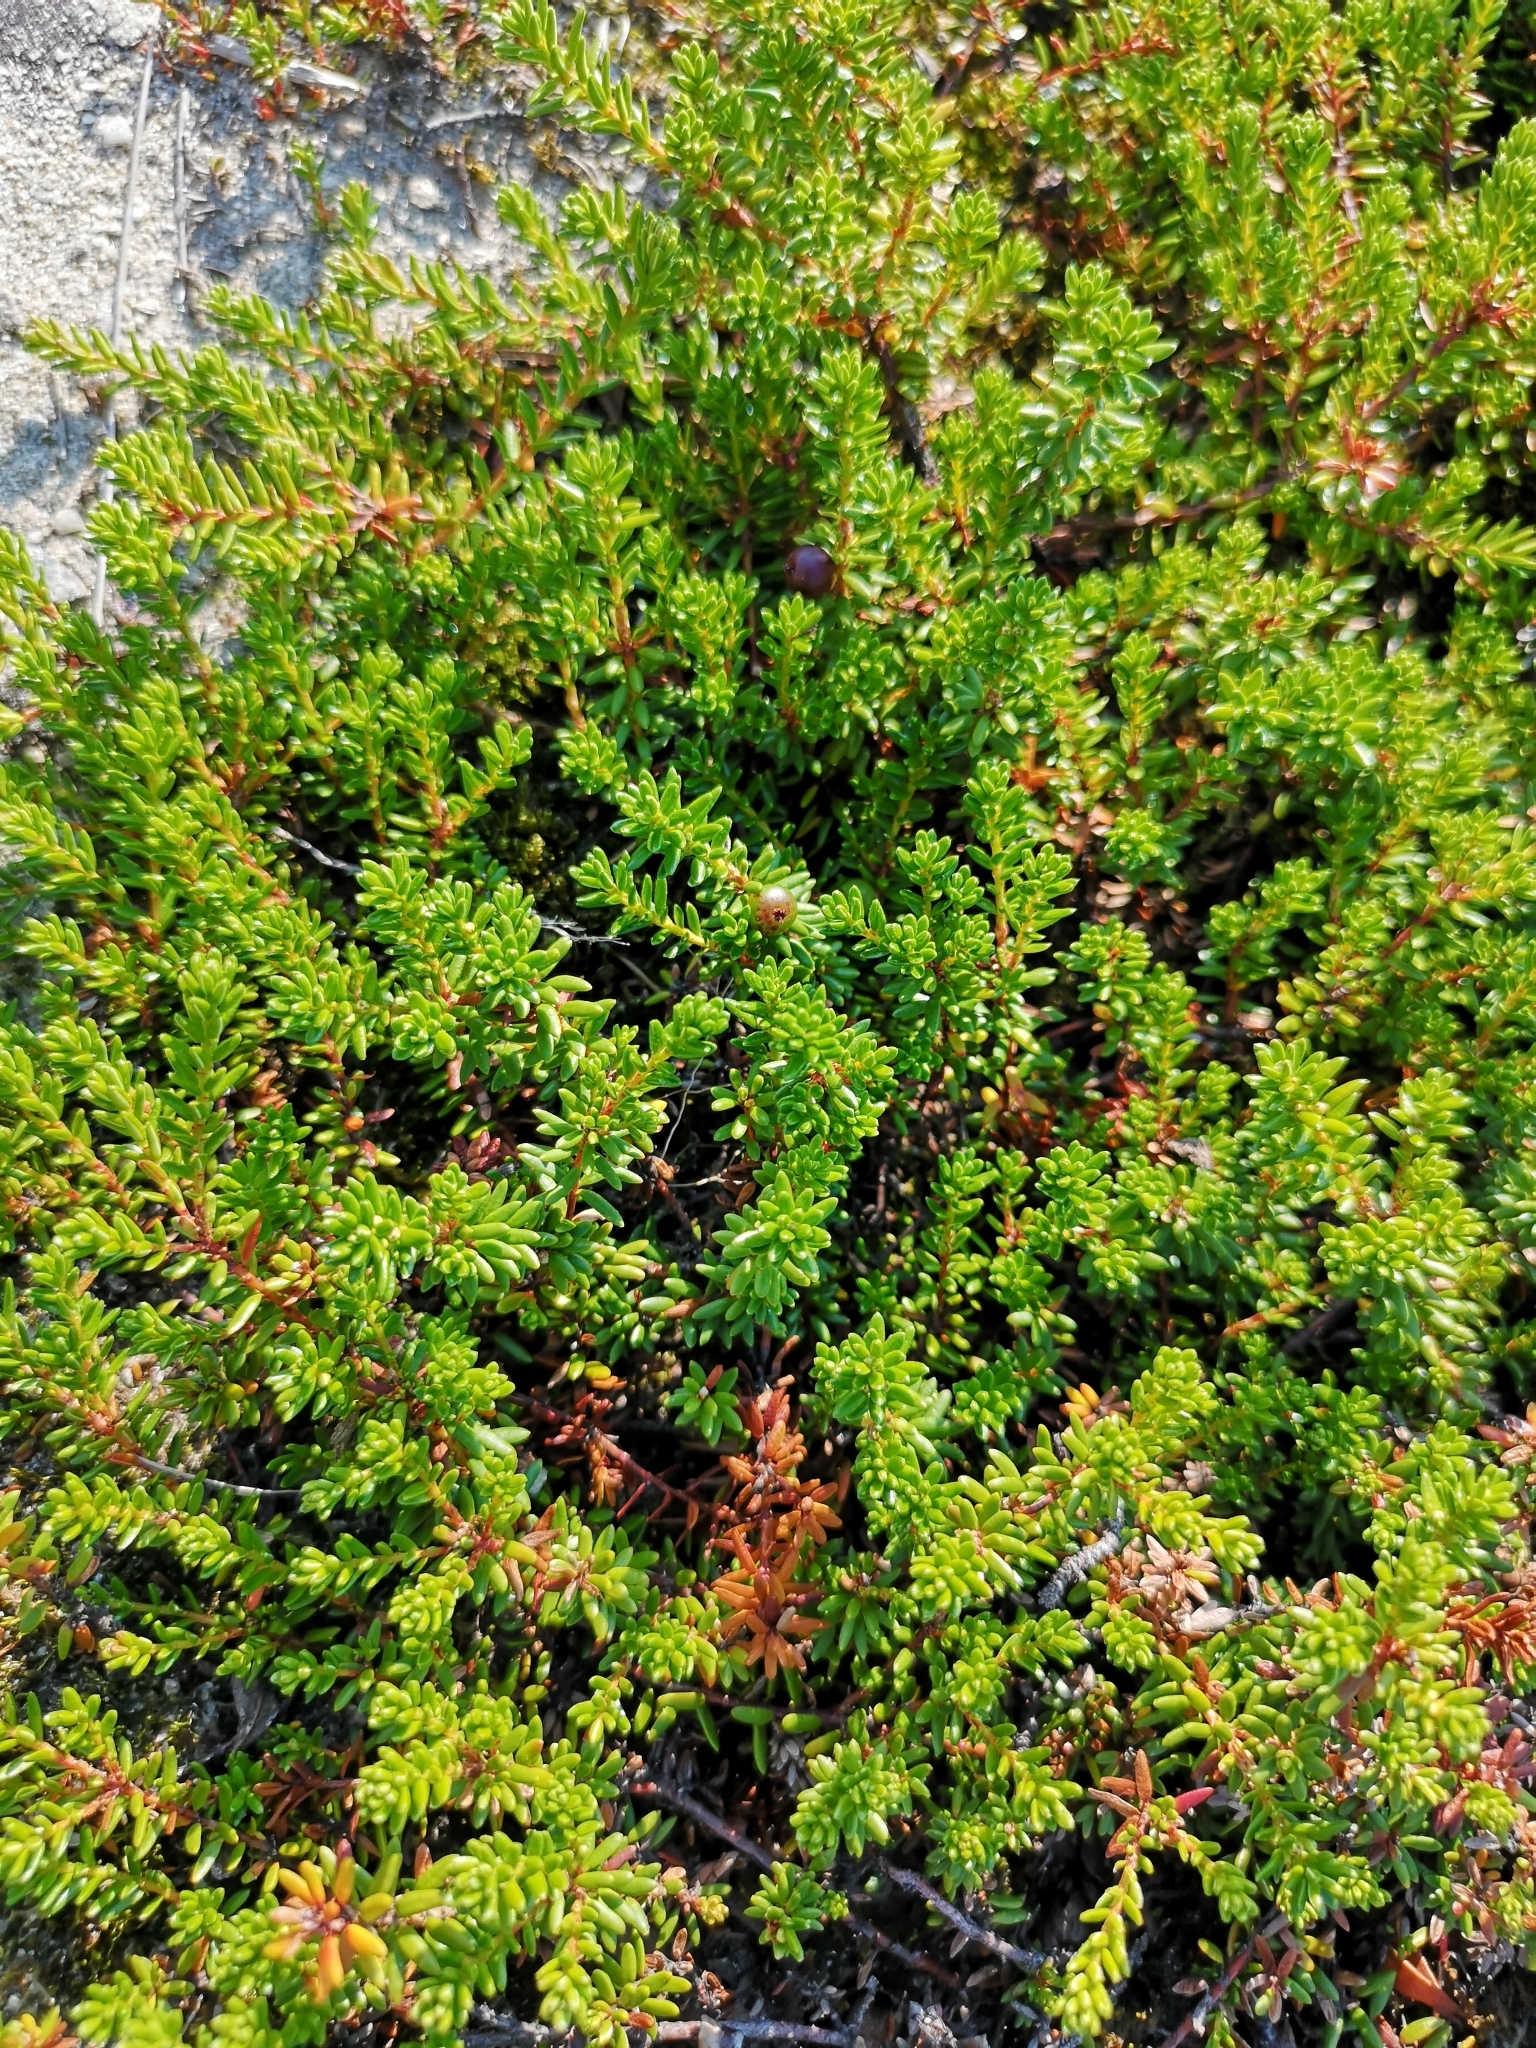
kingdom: Plantae
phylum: Tracheophyta
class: Magnoliopsida
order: Ericales
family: Ericaceae
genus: Empetrum
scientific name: Empetrum nigrum
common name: Black crowberry
